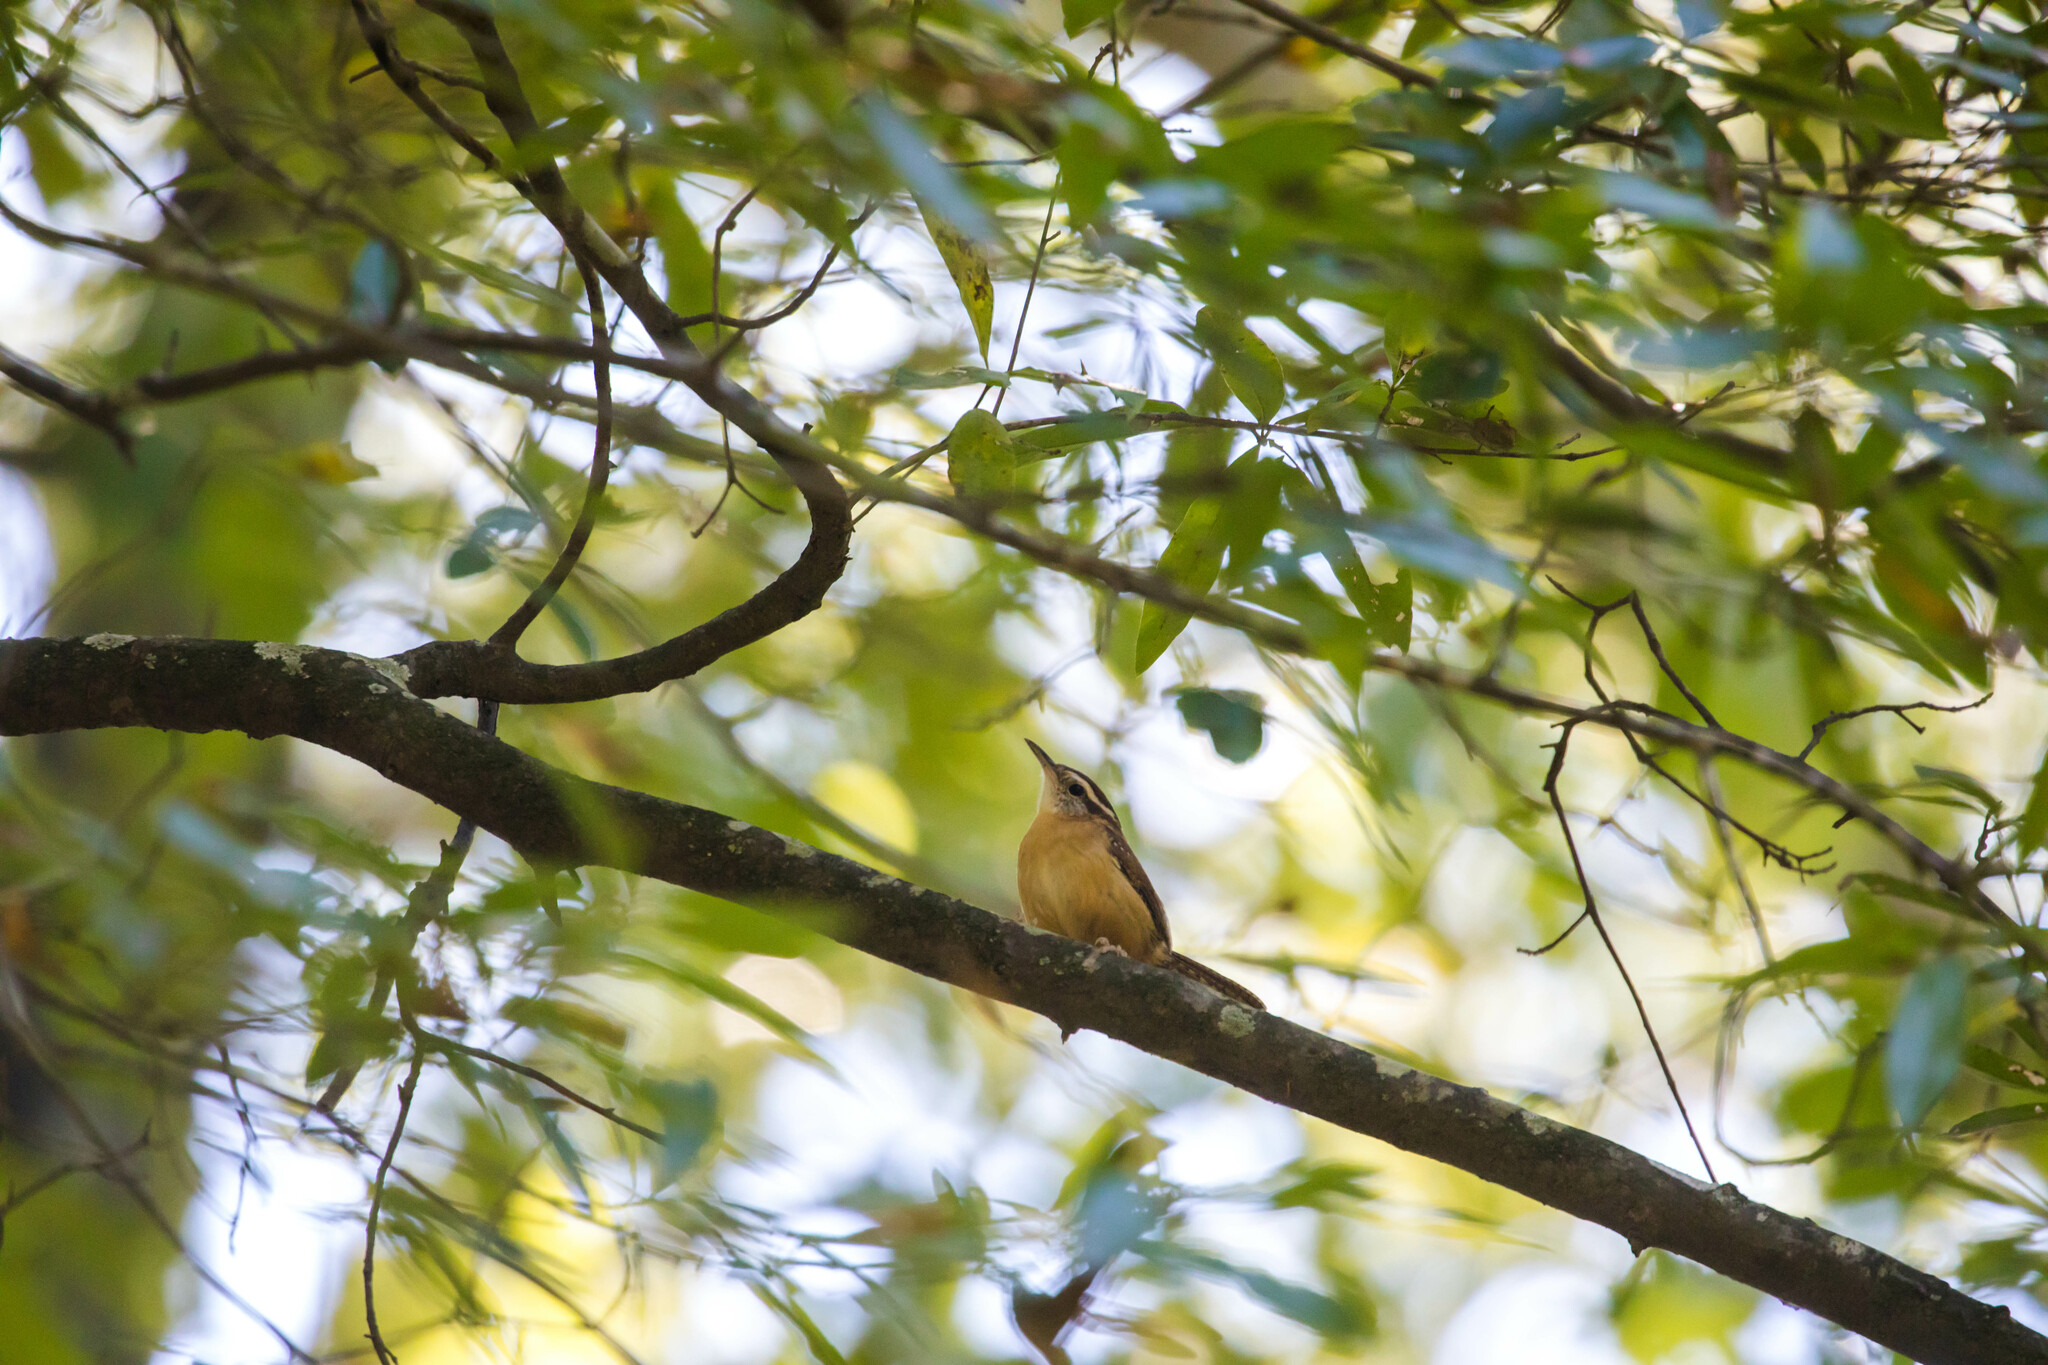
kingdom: Animalia
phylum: Chordata
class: Aves
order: Passeriformes
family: Troglodytidae
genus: Thryothorus
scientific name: Thryothorus ludovicianus
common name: Carolina wren
